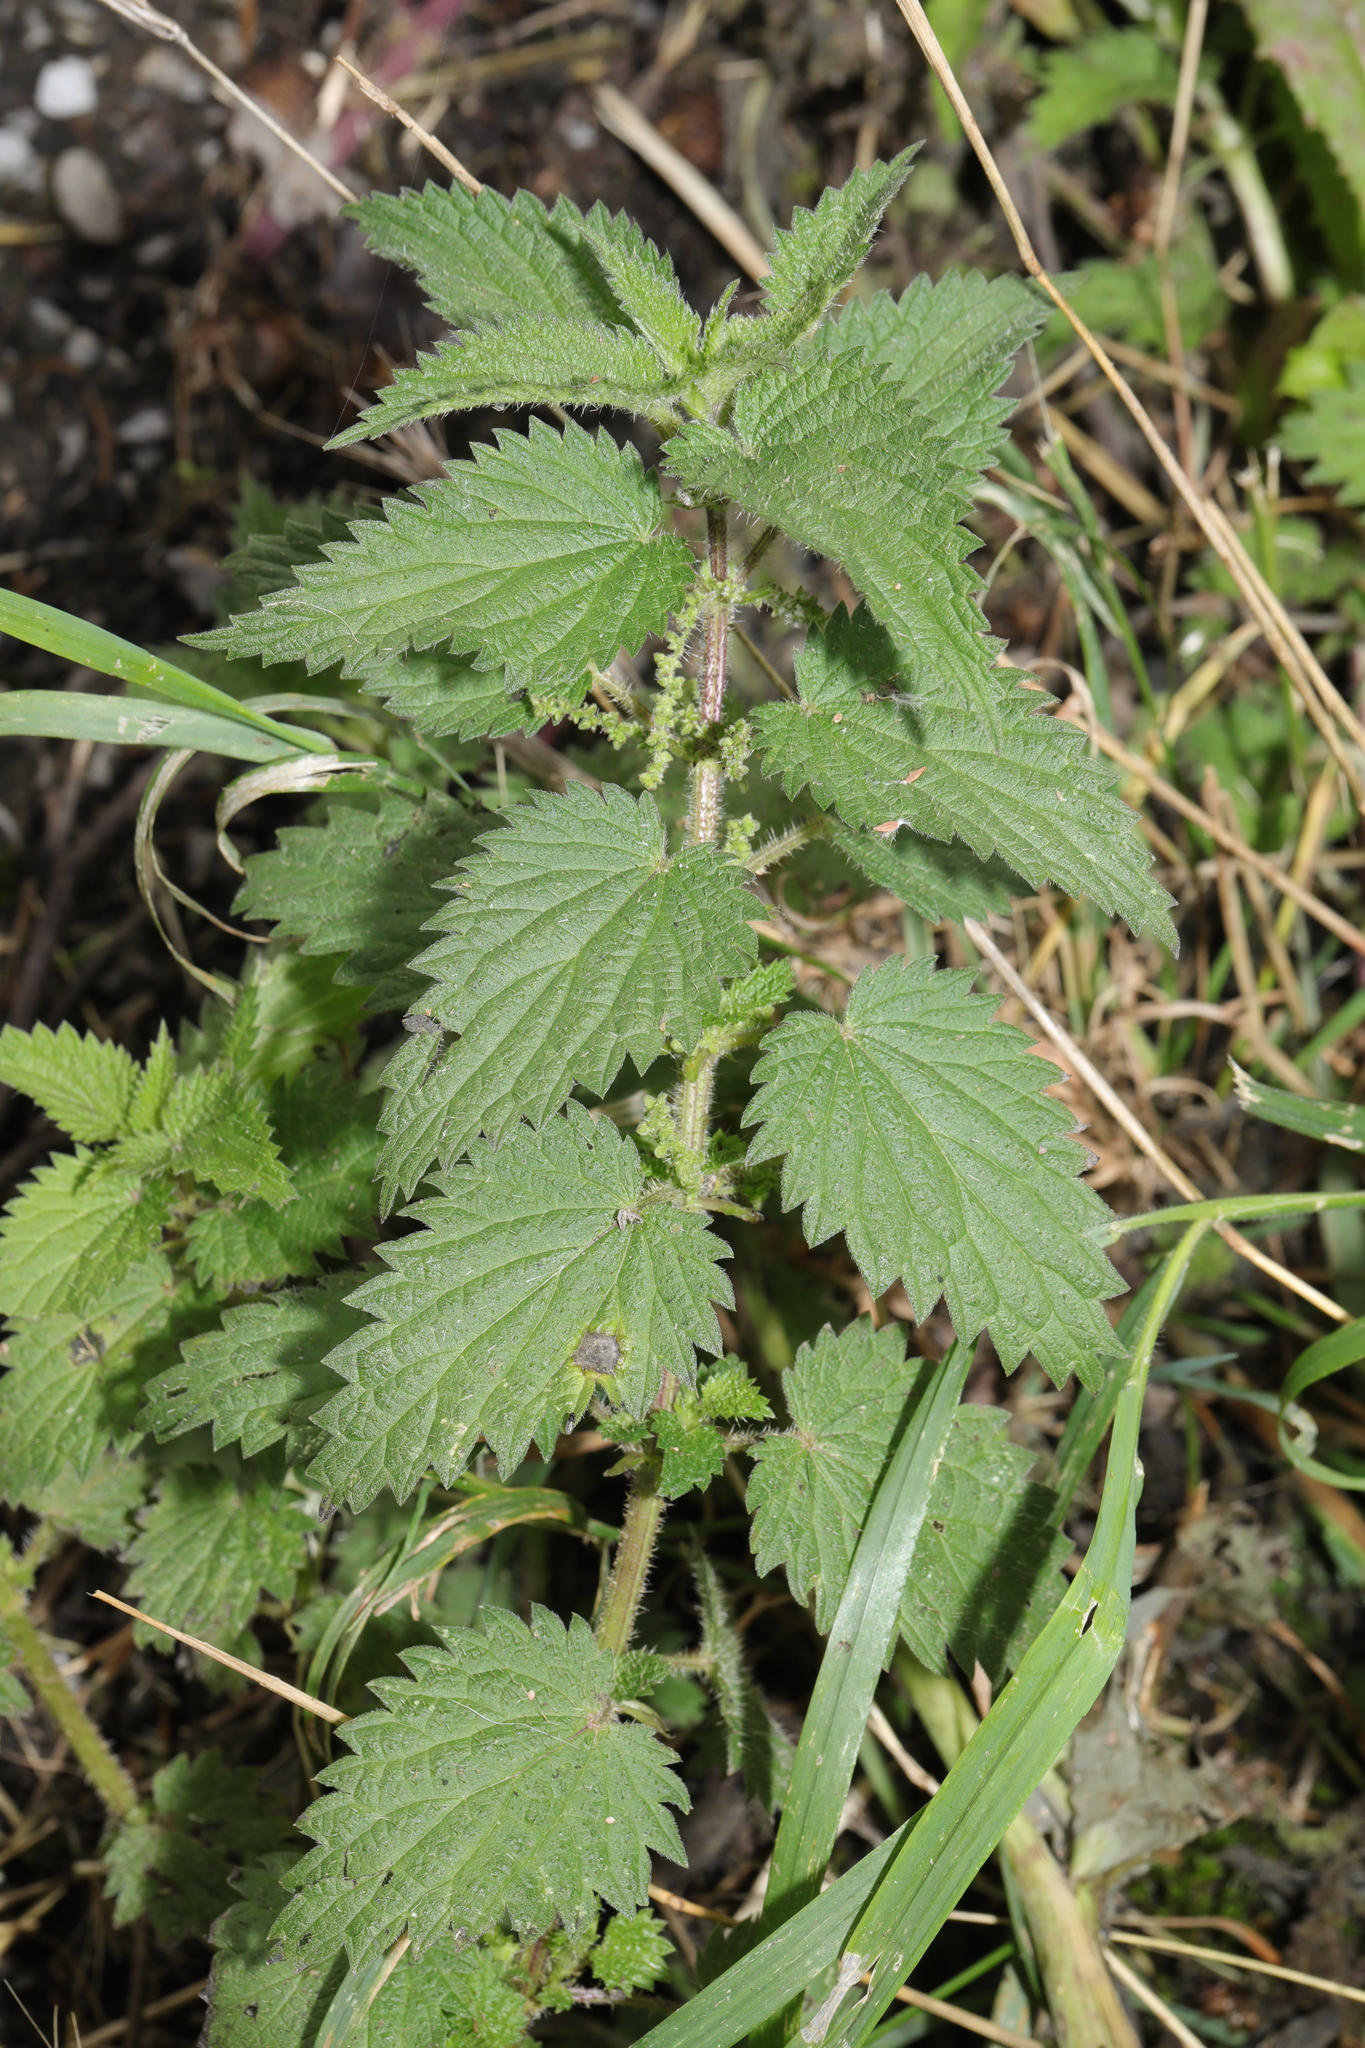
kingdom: Plantae
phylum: Tracheophyta
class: Magnoliopsida
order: Rosales
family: Urticaceae
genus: Urtica
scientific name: Urtica dioica
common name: Common nettle
